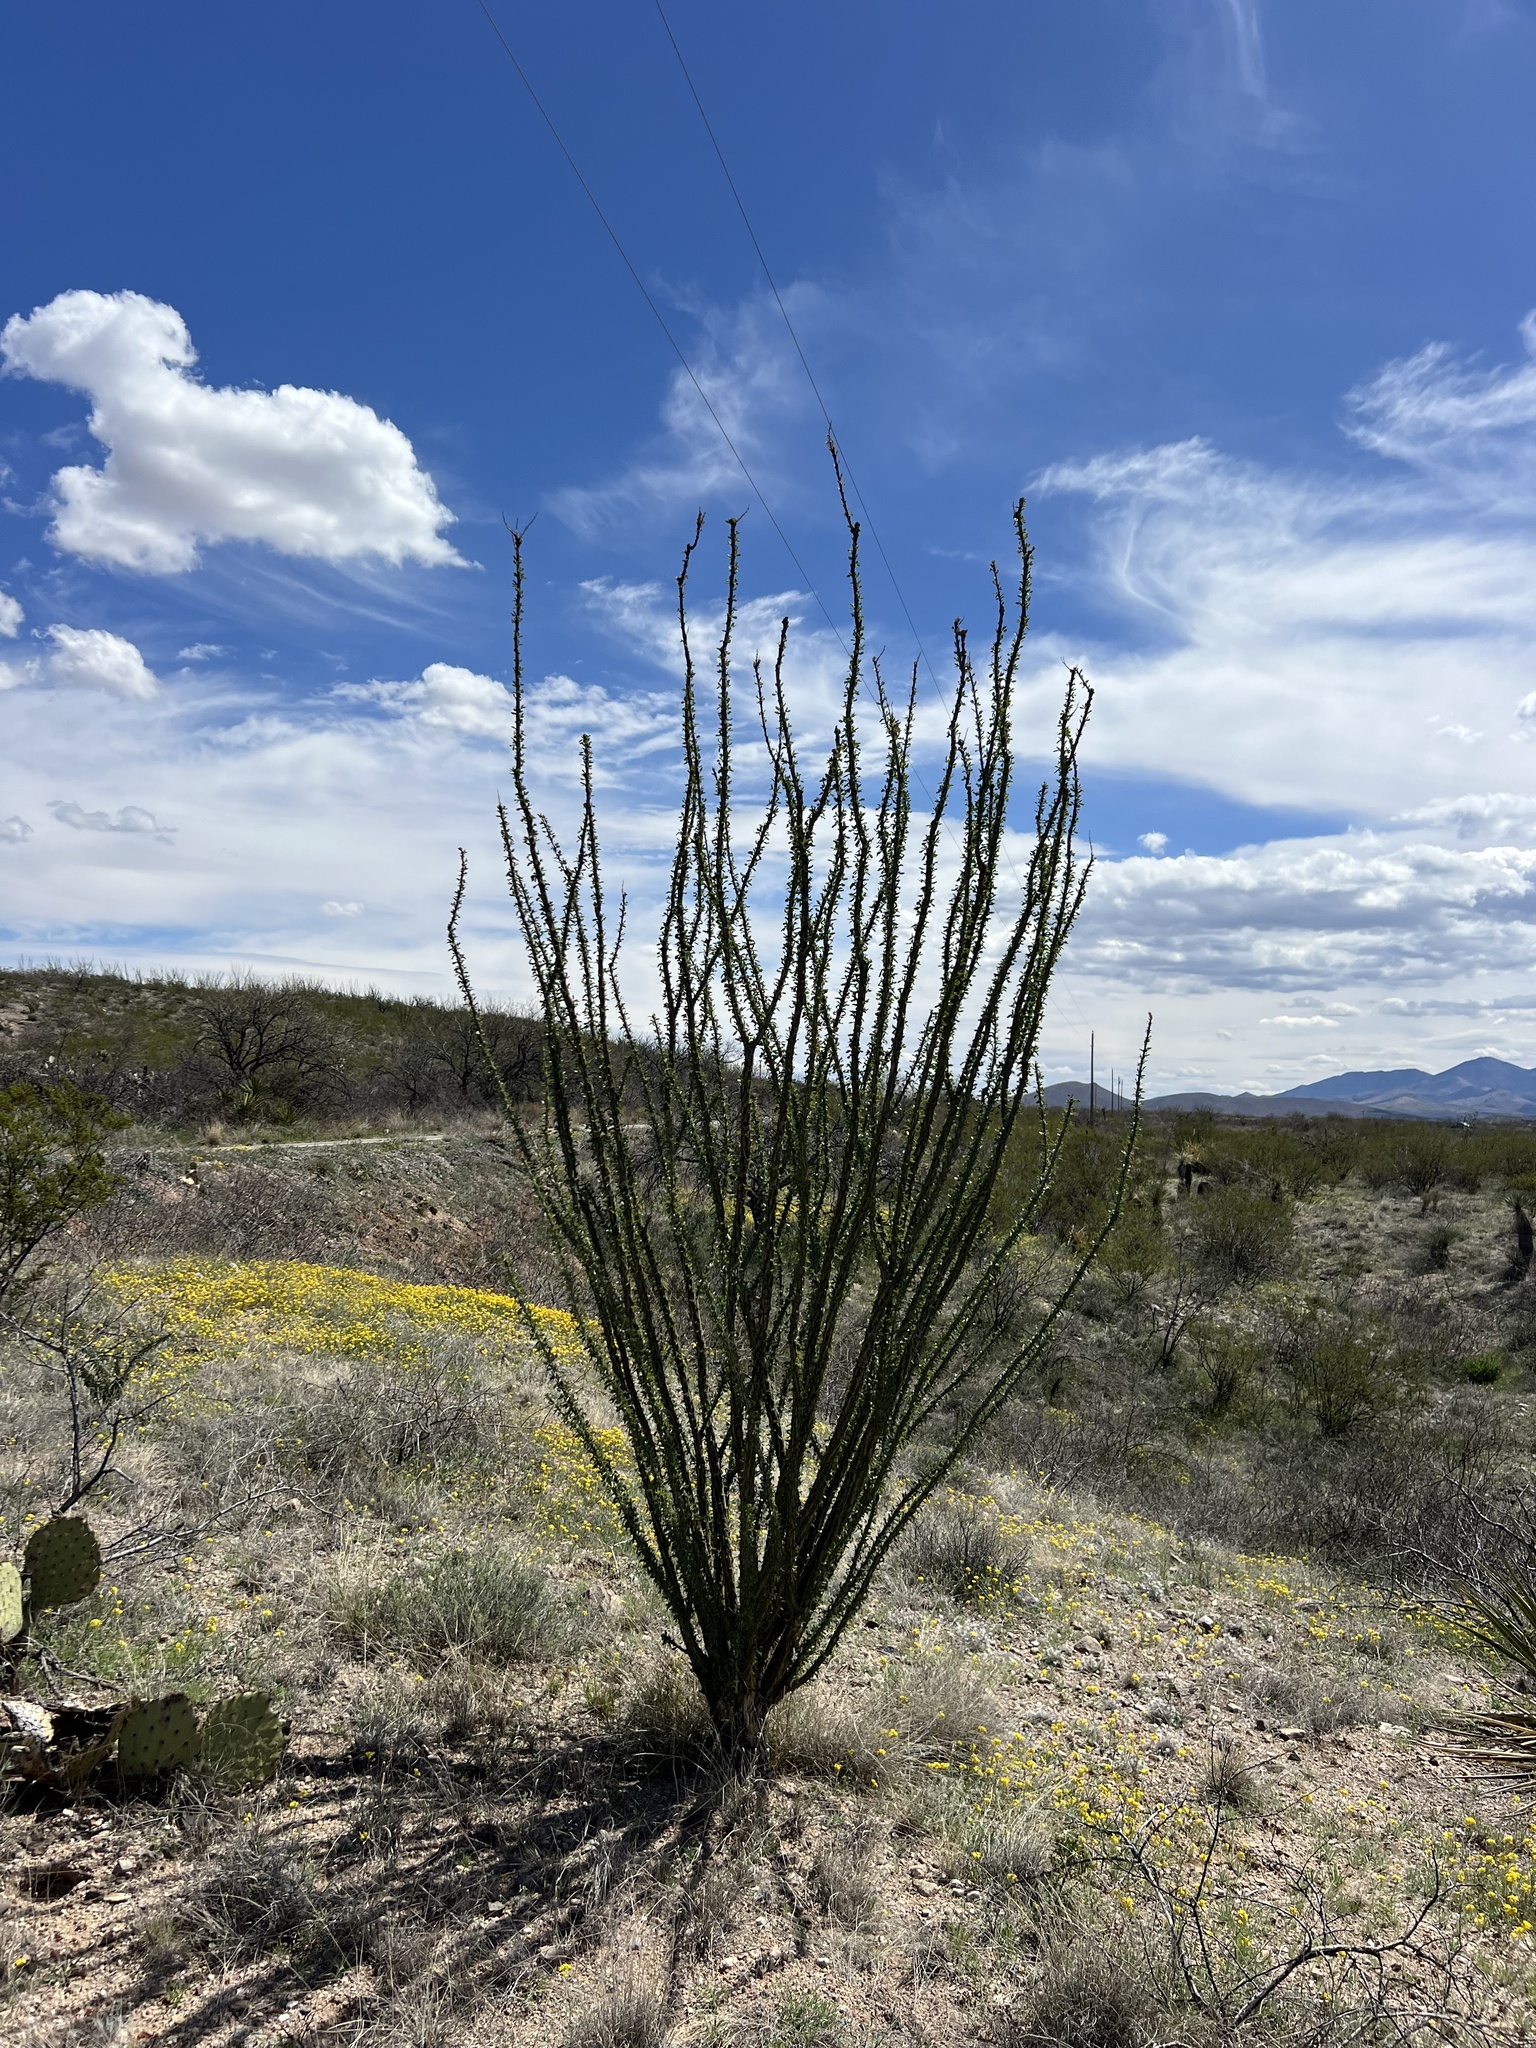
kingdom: Plantae
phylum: Tracheophyta
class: Magnoliopsida
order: Ericales
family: Fouquieriaceae
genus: Fouquieria
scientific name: Fouquieria splendens
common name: Vine-cactus
